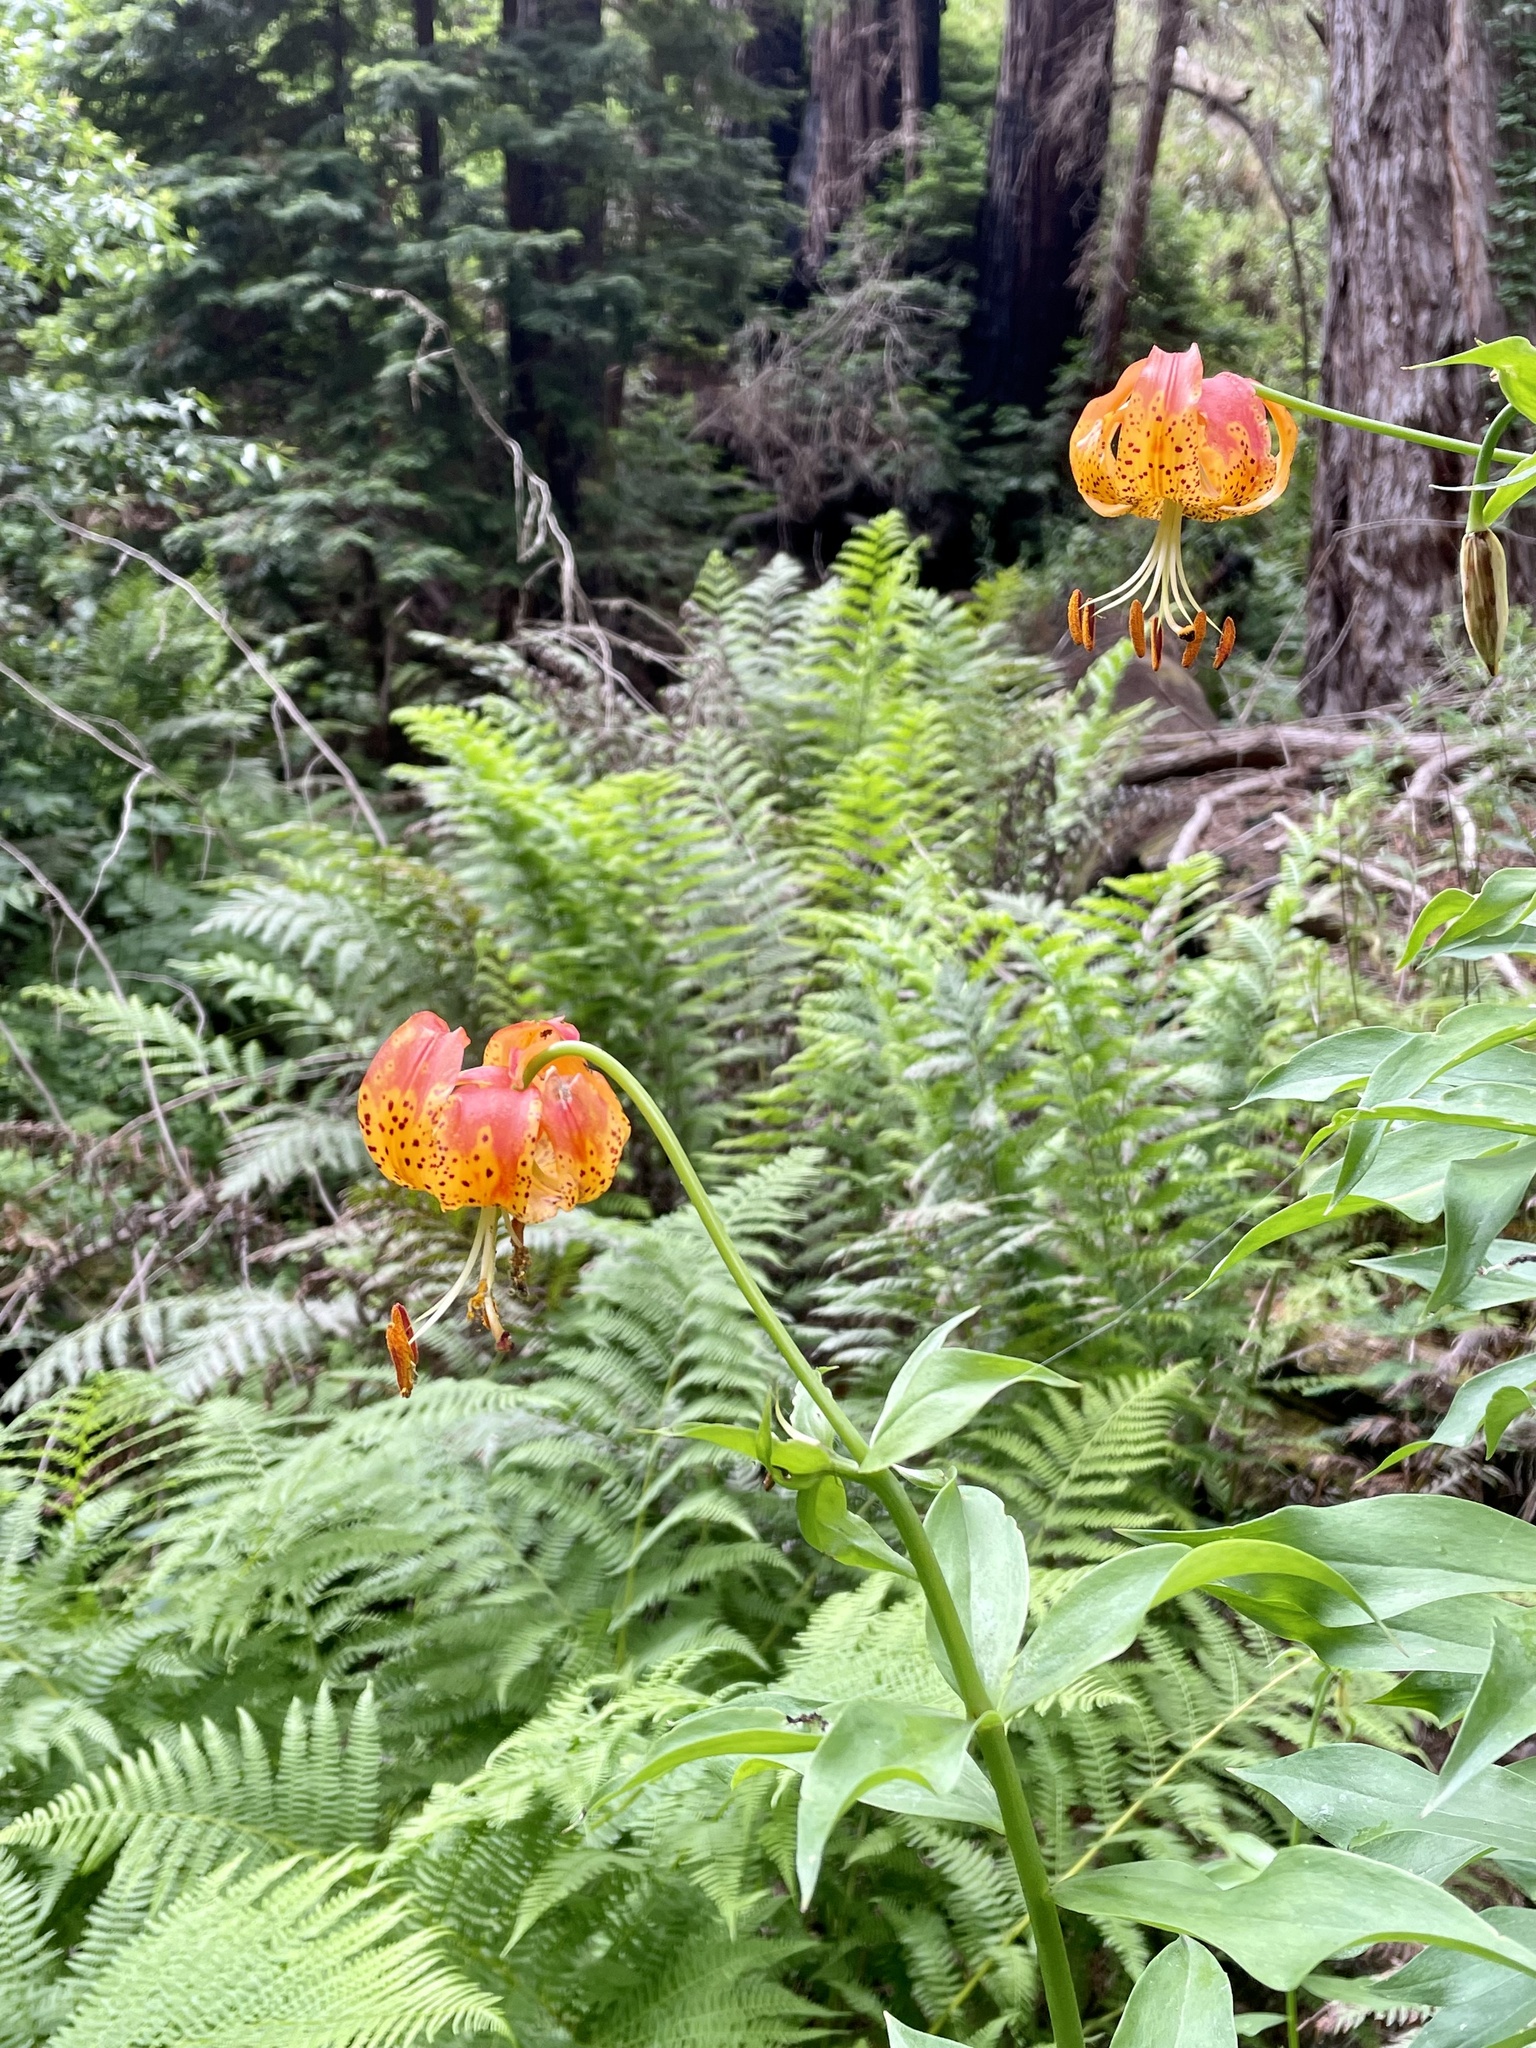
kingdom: Plantae
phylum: Tracheophyta
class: Liliopsida
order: Liliales
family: Liliaceae
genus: Lilium
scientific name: Lilium pardalinum
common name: Panther lily
